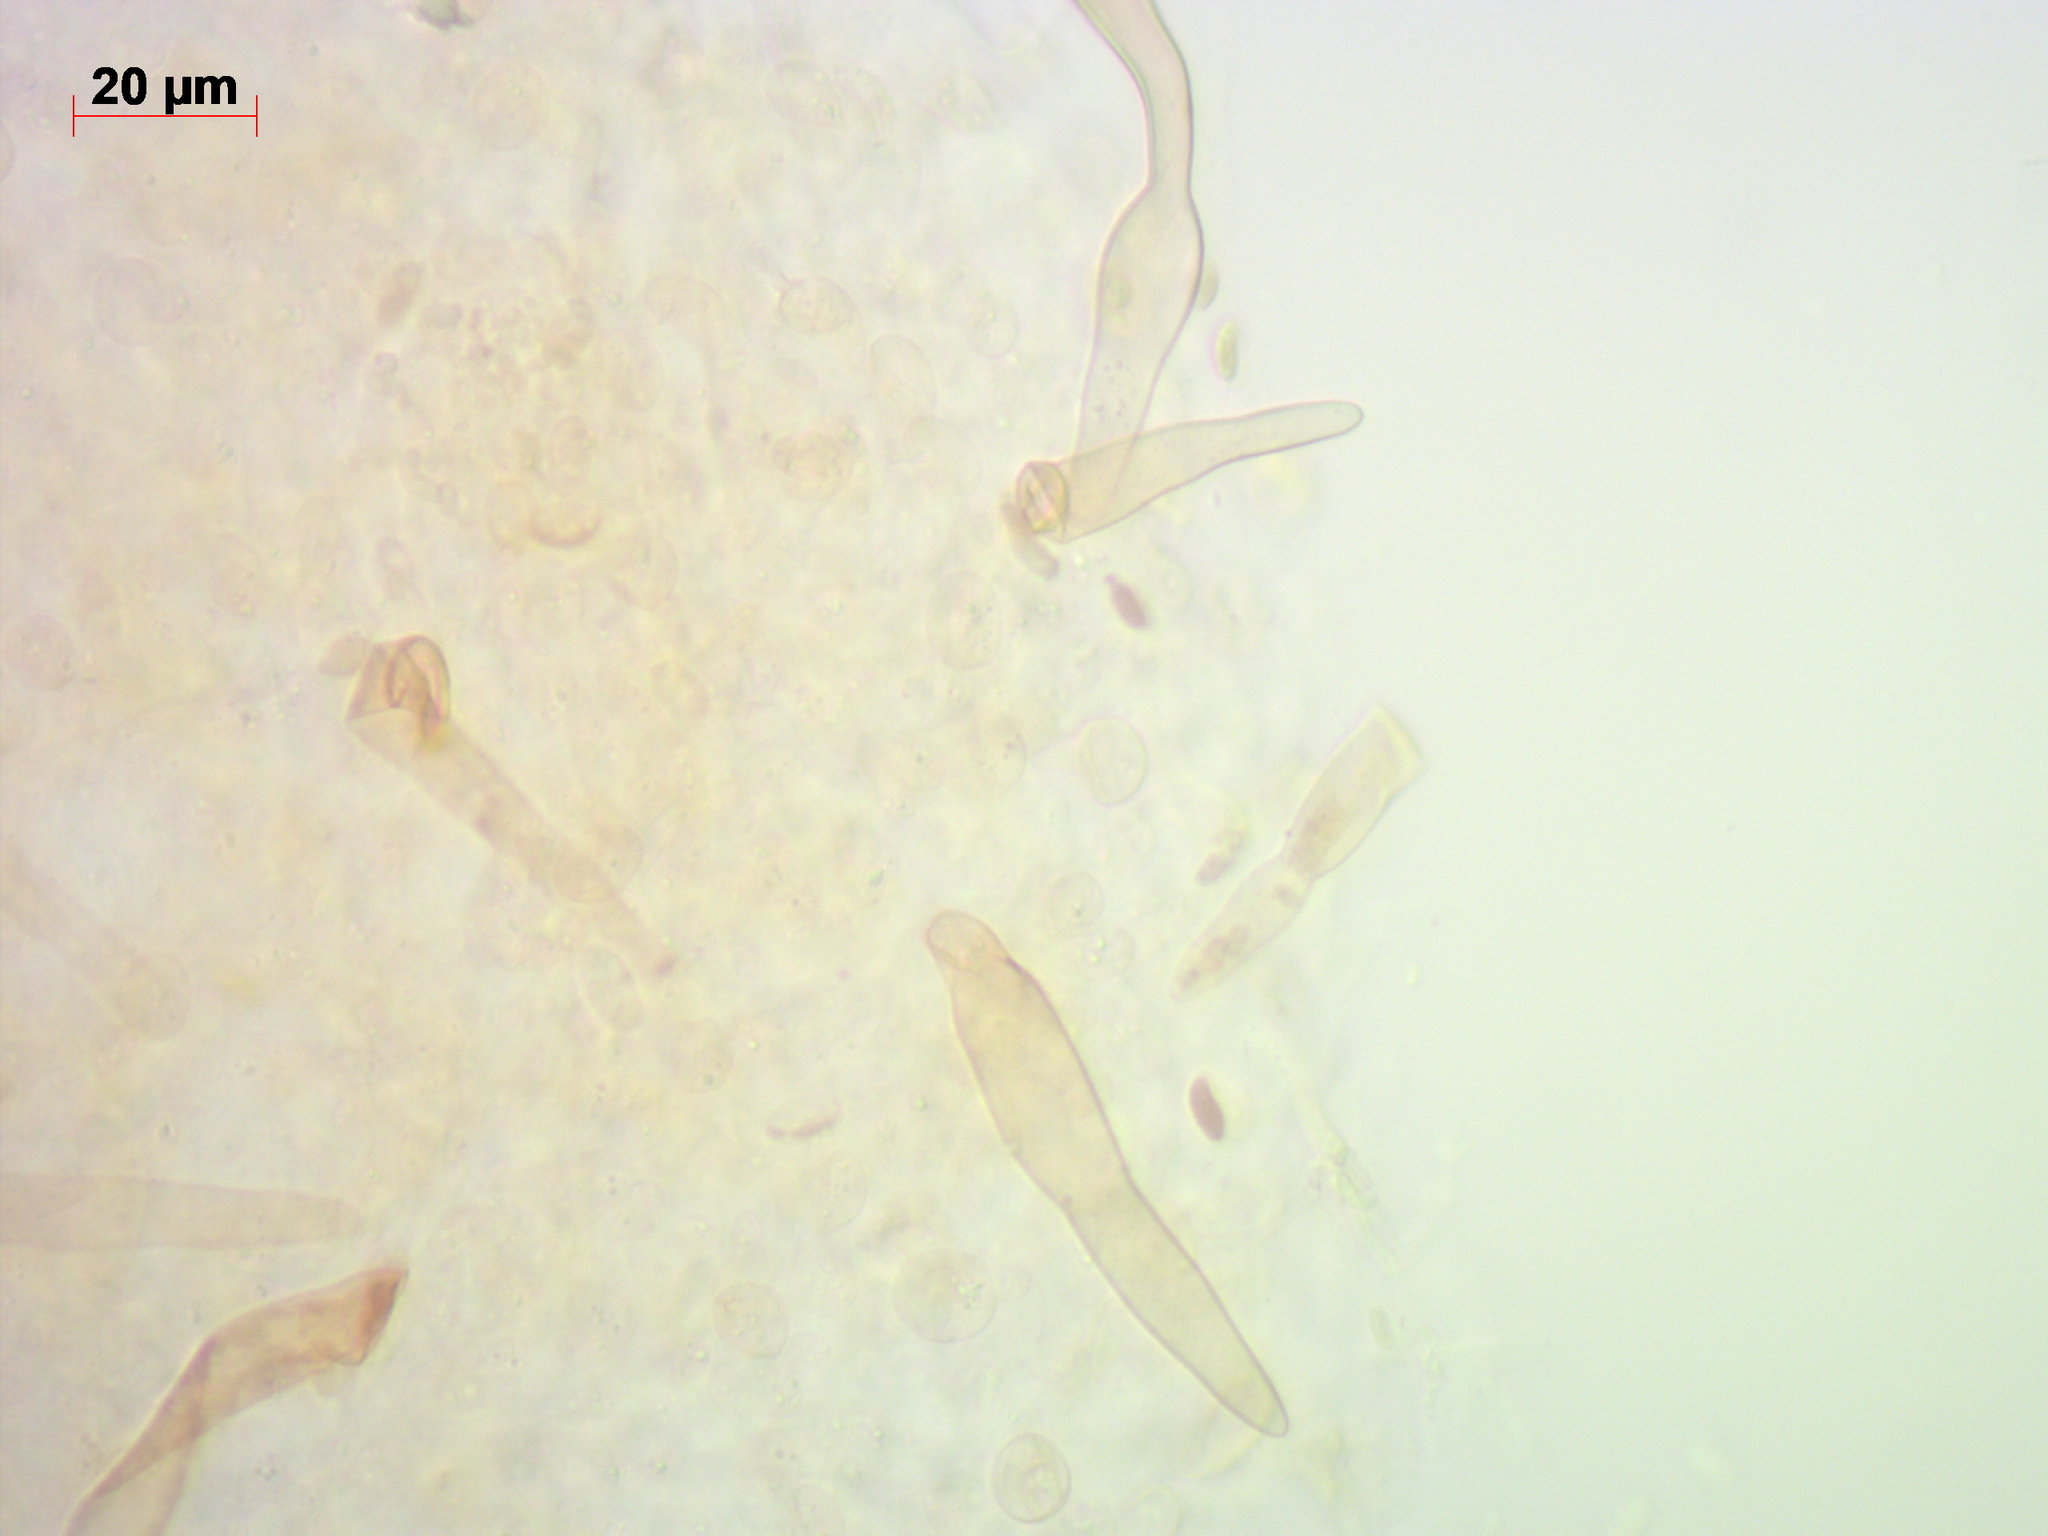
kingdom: Fungi
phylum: Basidiomycota
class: Agaricomycetes
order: Agaricales
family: Physalacriaceae
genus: Flammulina
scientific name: Flammulina populicola
